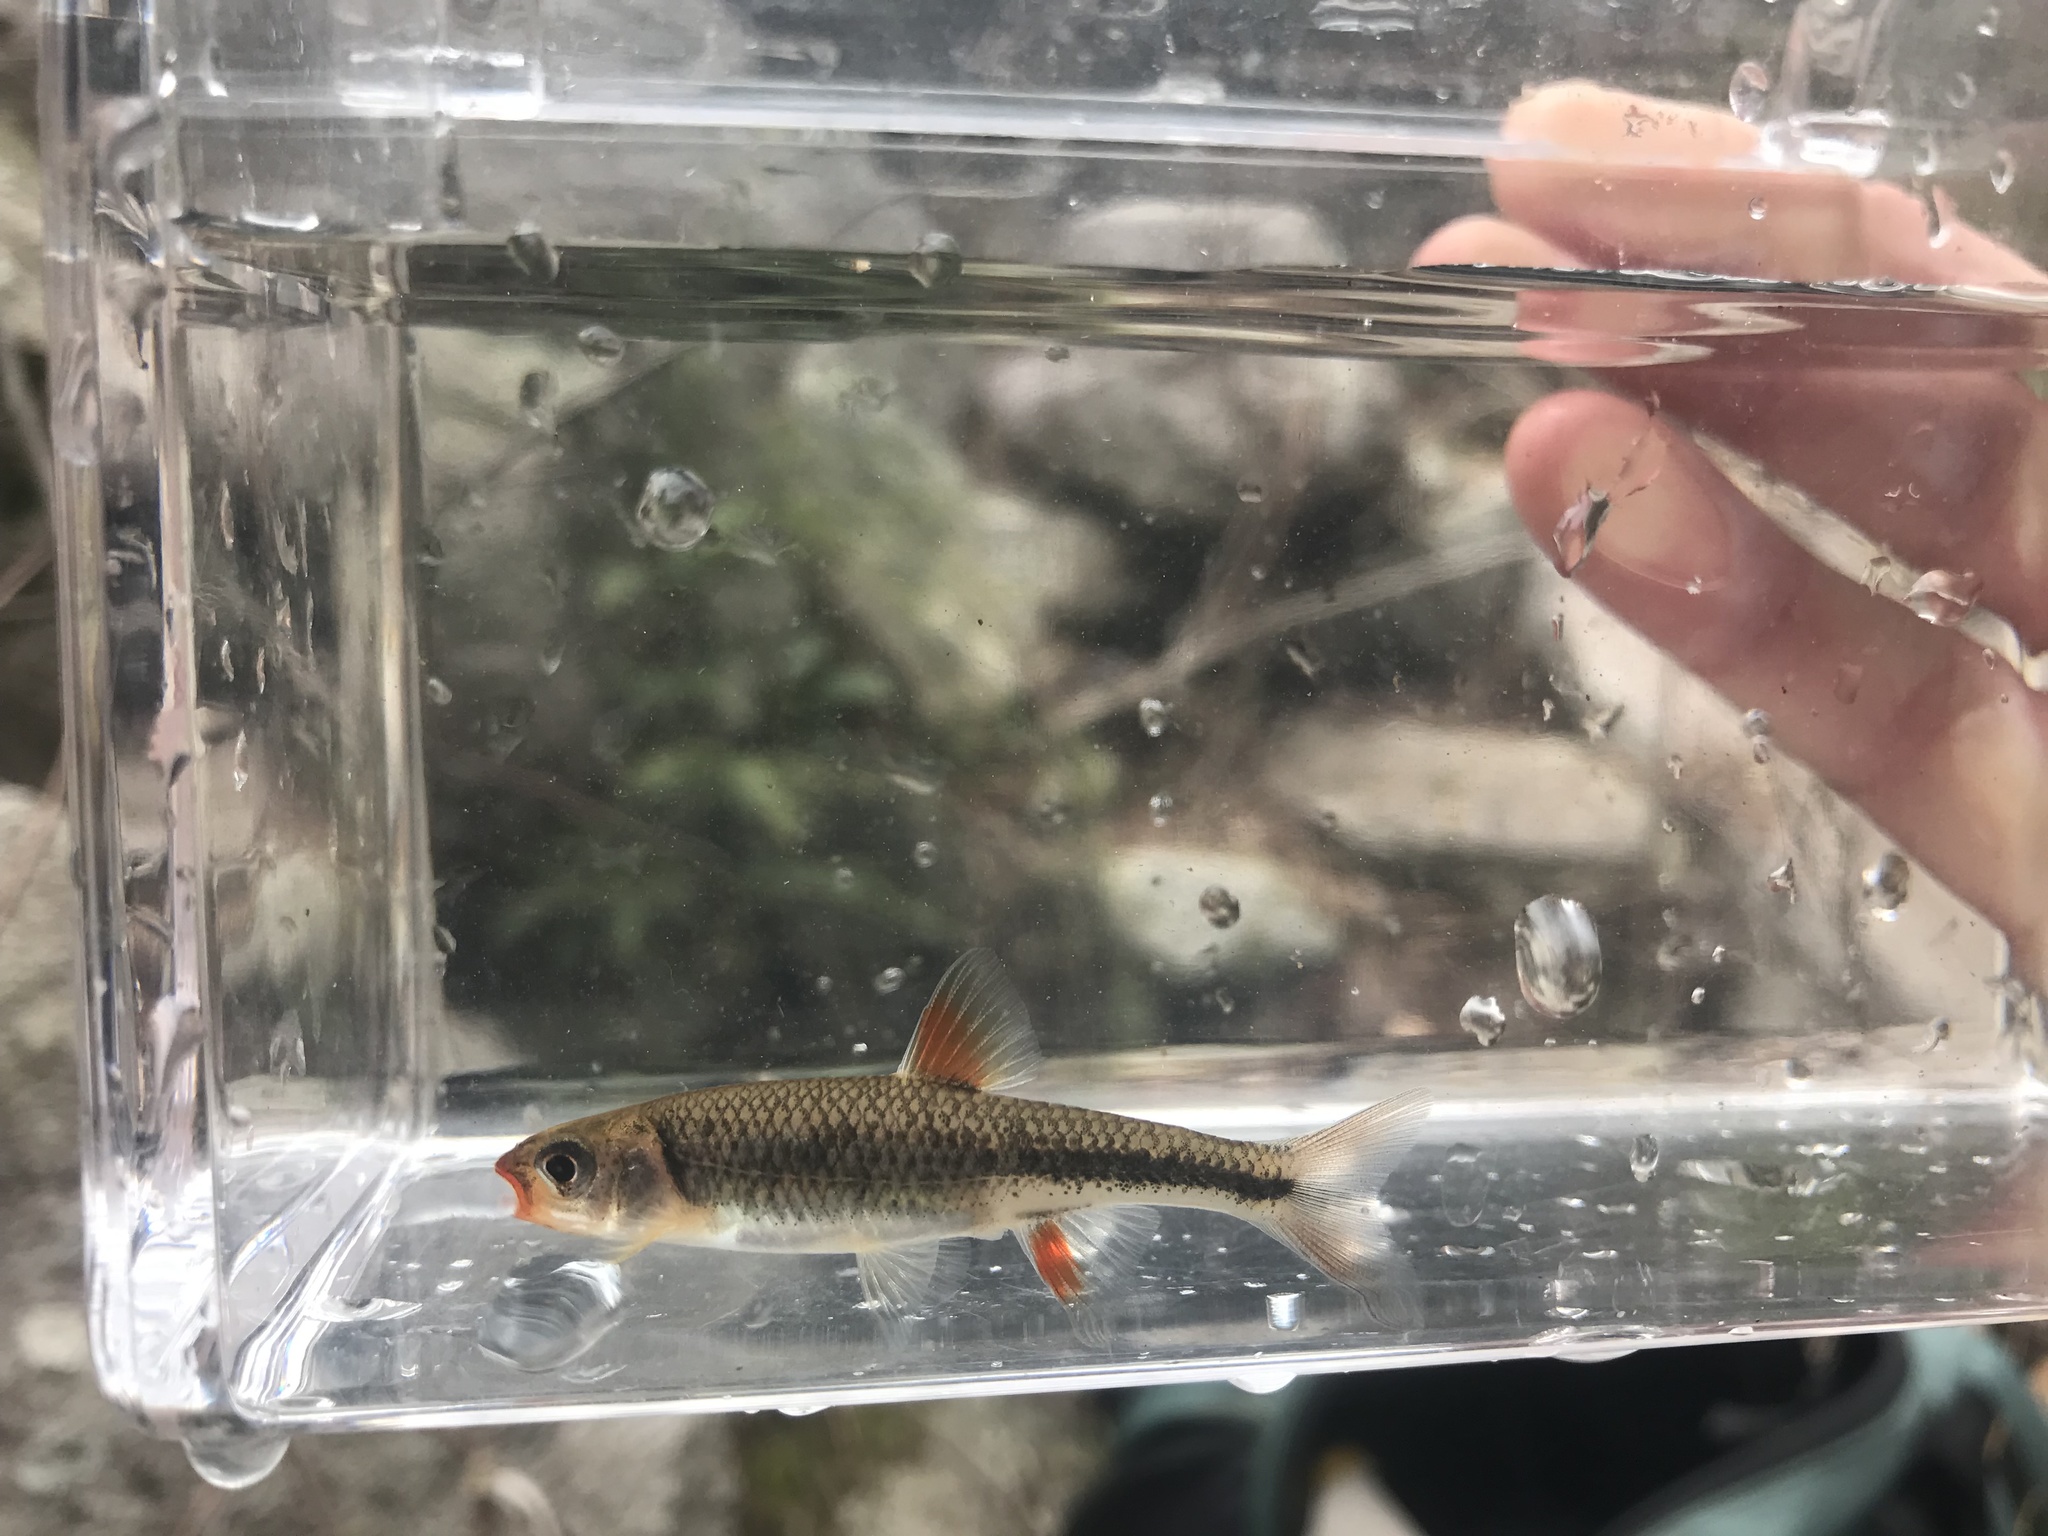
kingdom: Animalia
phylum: Chordata
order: Cypriniformes
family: Cyprinidae
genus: Notropis
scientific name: Notropis
